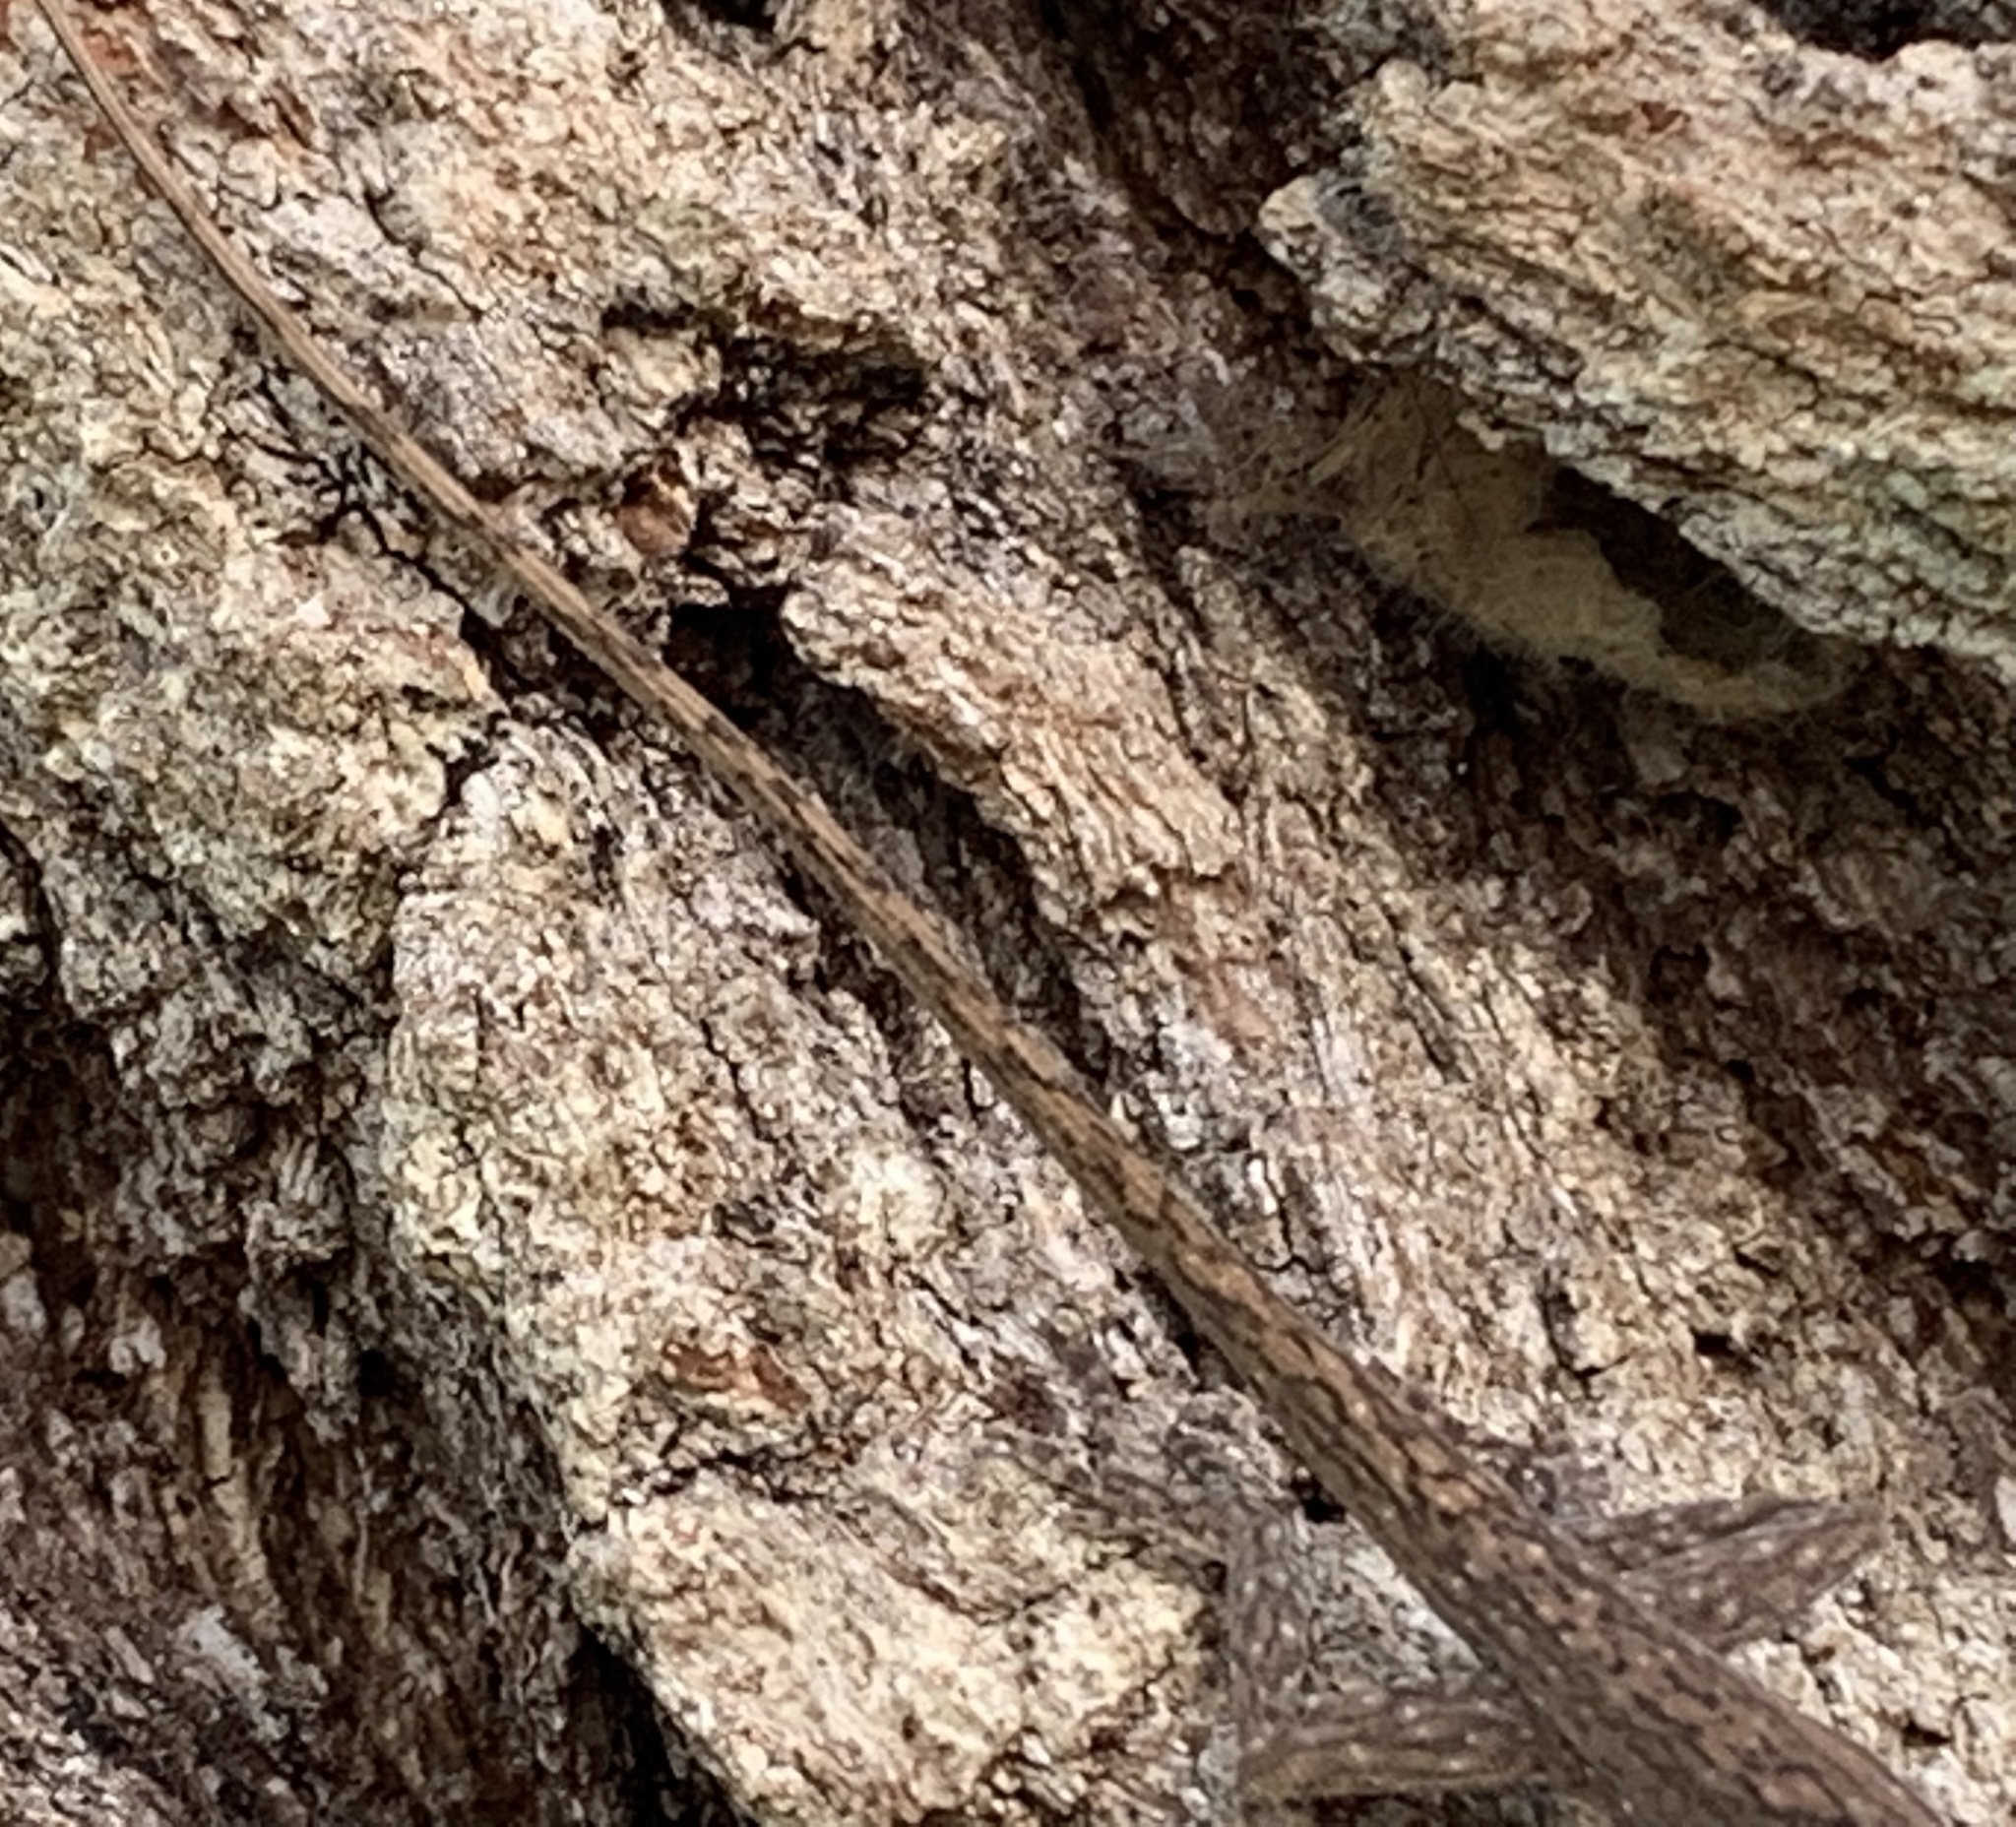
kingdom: Animalia
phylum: Chordata
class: Squamata
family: Dactyloidae
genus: Anolis
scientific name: Anolis carolinensis
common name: Green anole
